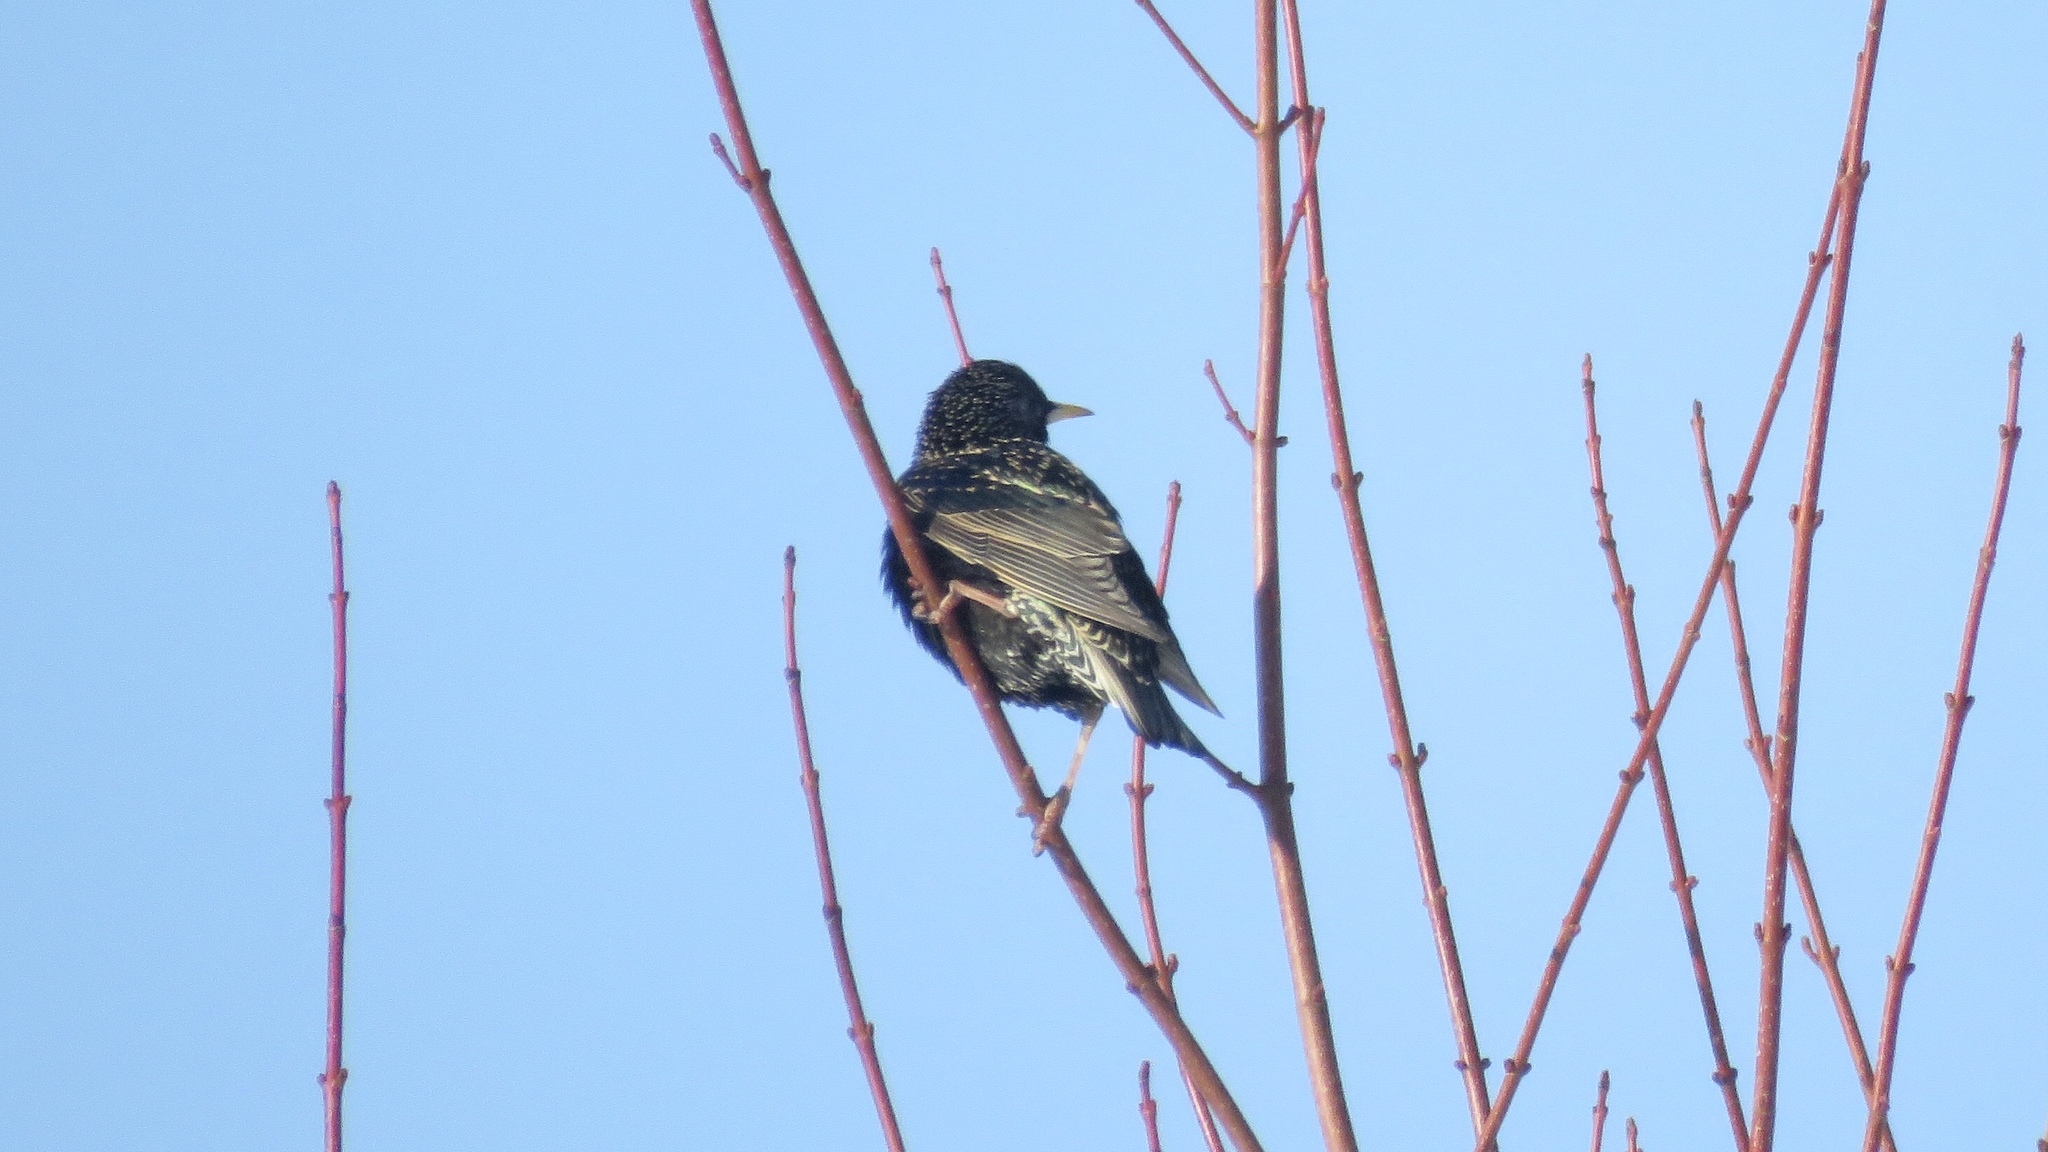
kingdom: Animalia
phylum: Chordata
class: Aves
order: Passeriformes
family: Sturnidae
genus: Sturnus
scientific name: Sturnus vulgaris
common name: Common starling
